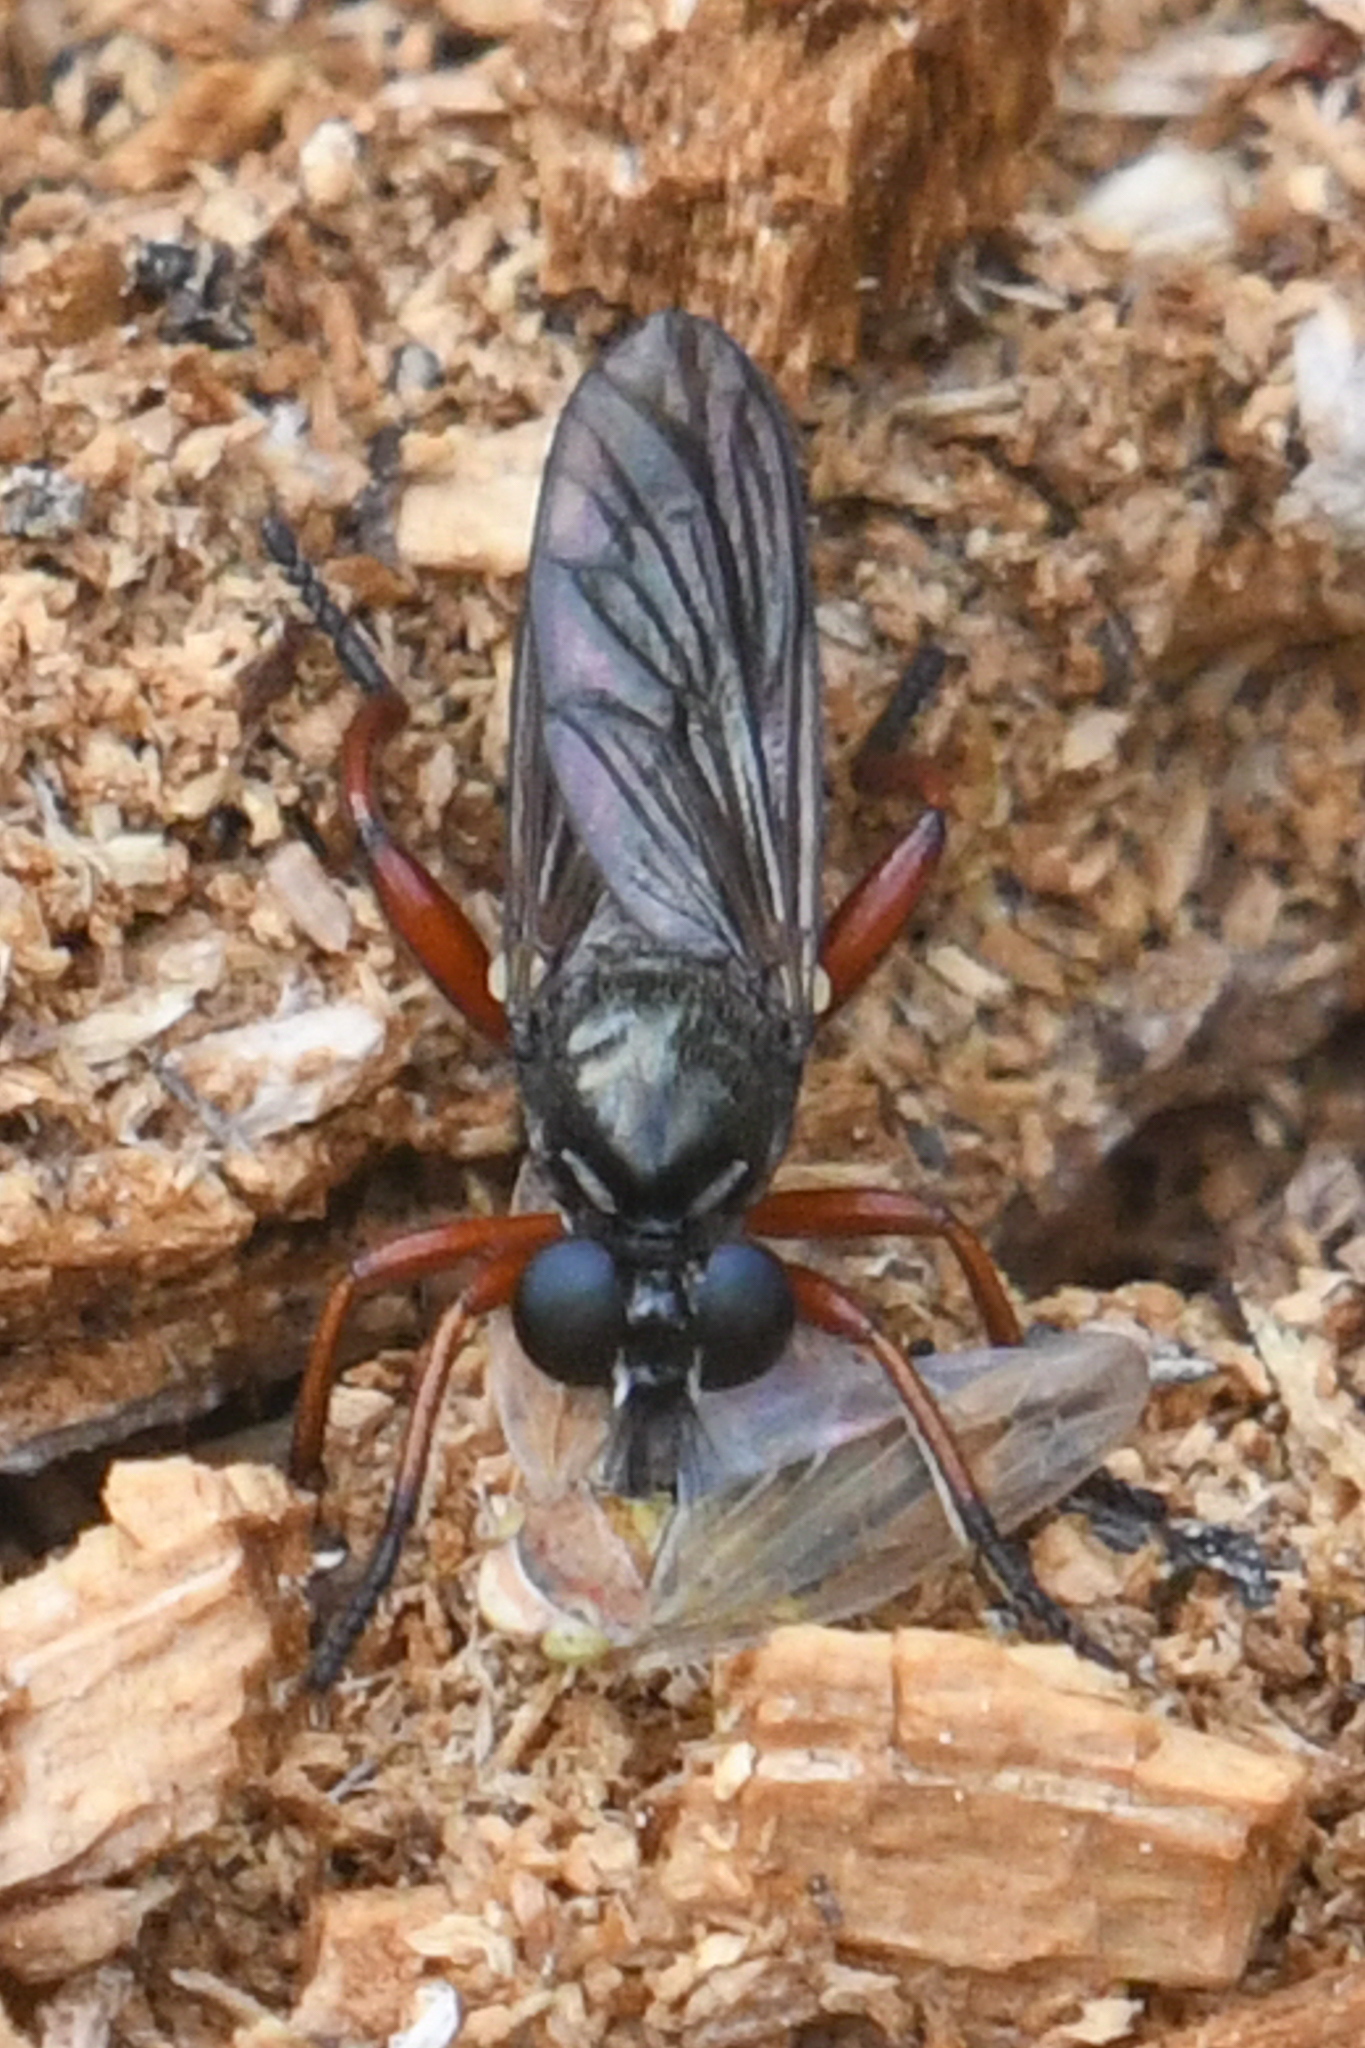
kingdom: Animalia
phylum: Arthropoda
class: Insecta
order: Diptera
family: Asilidae
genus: Laphria
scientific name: Laphria sadales
